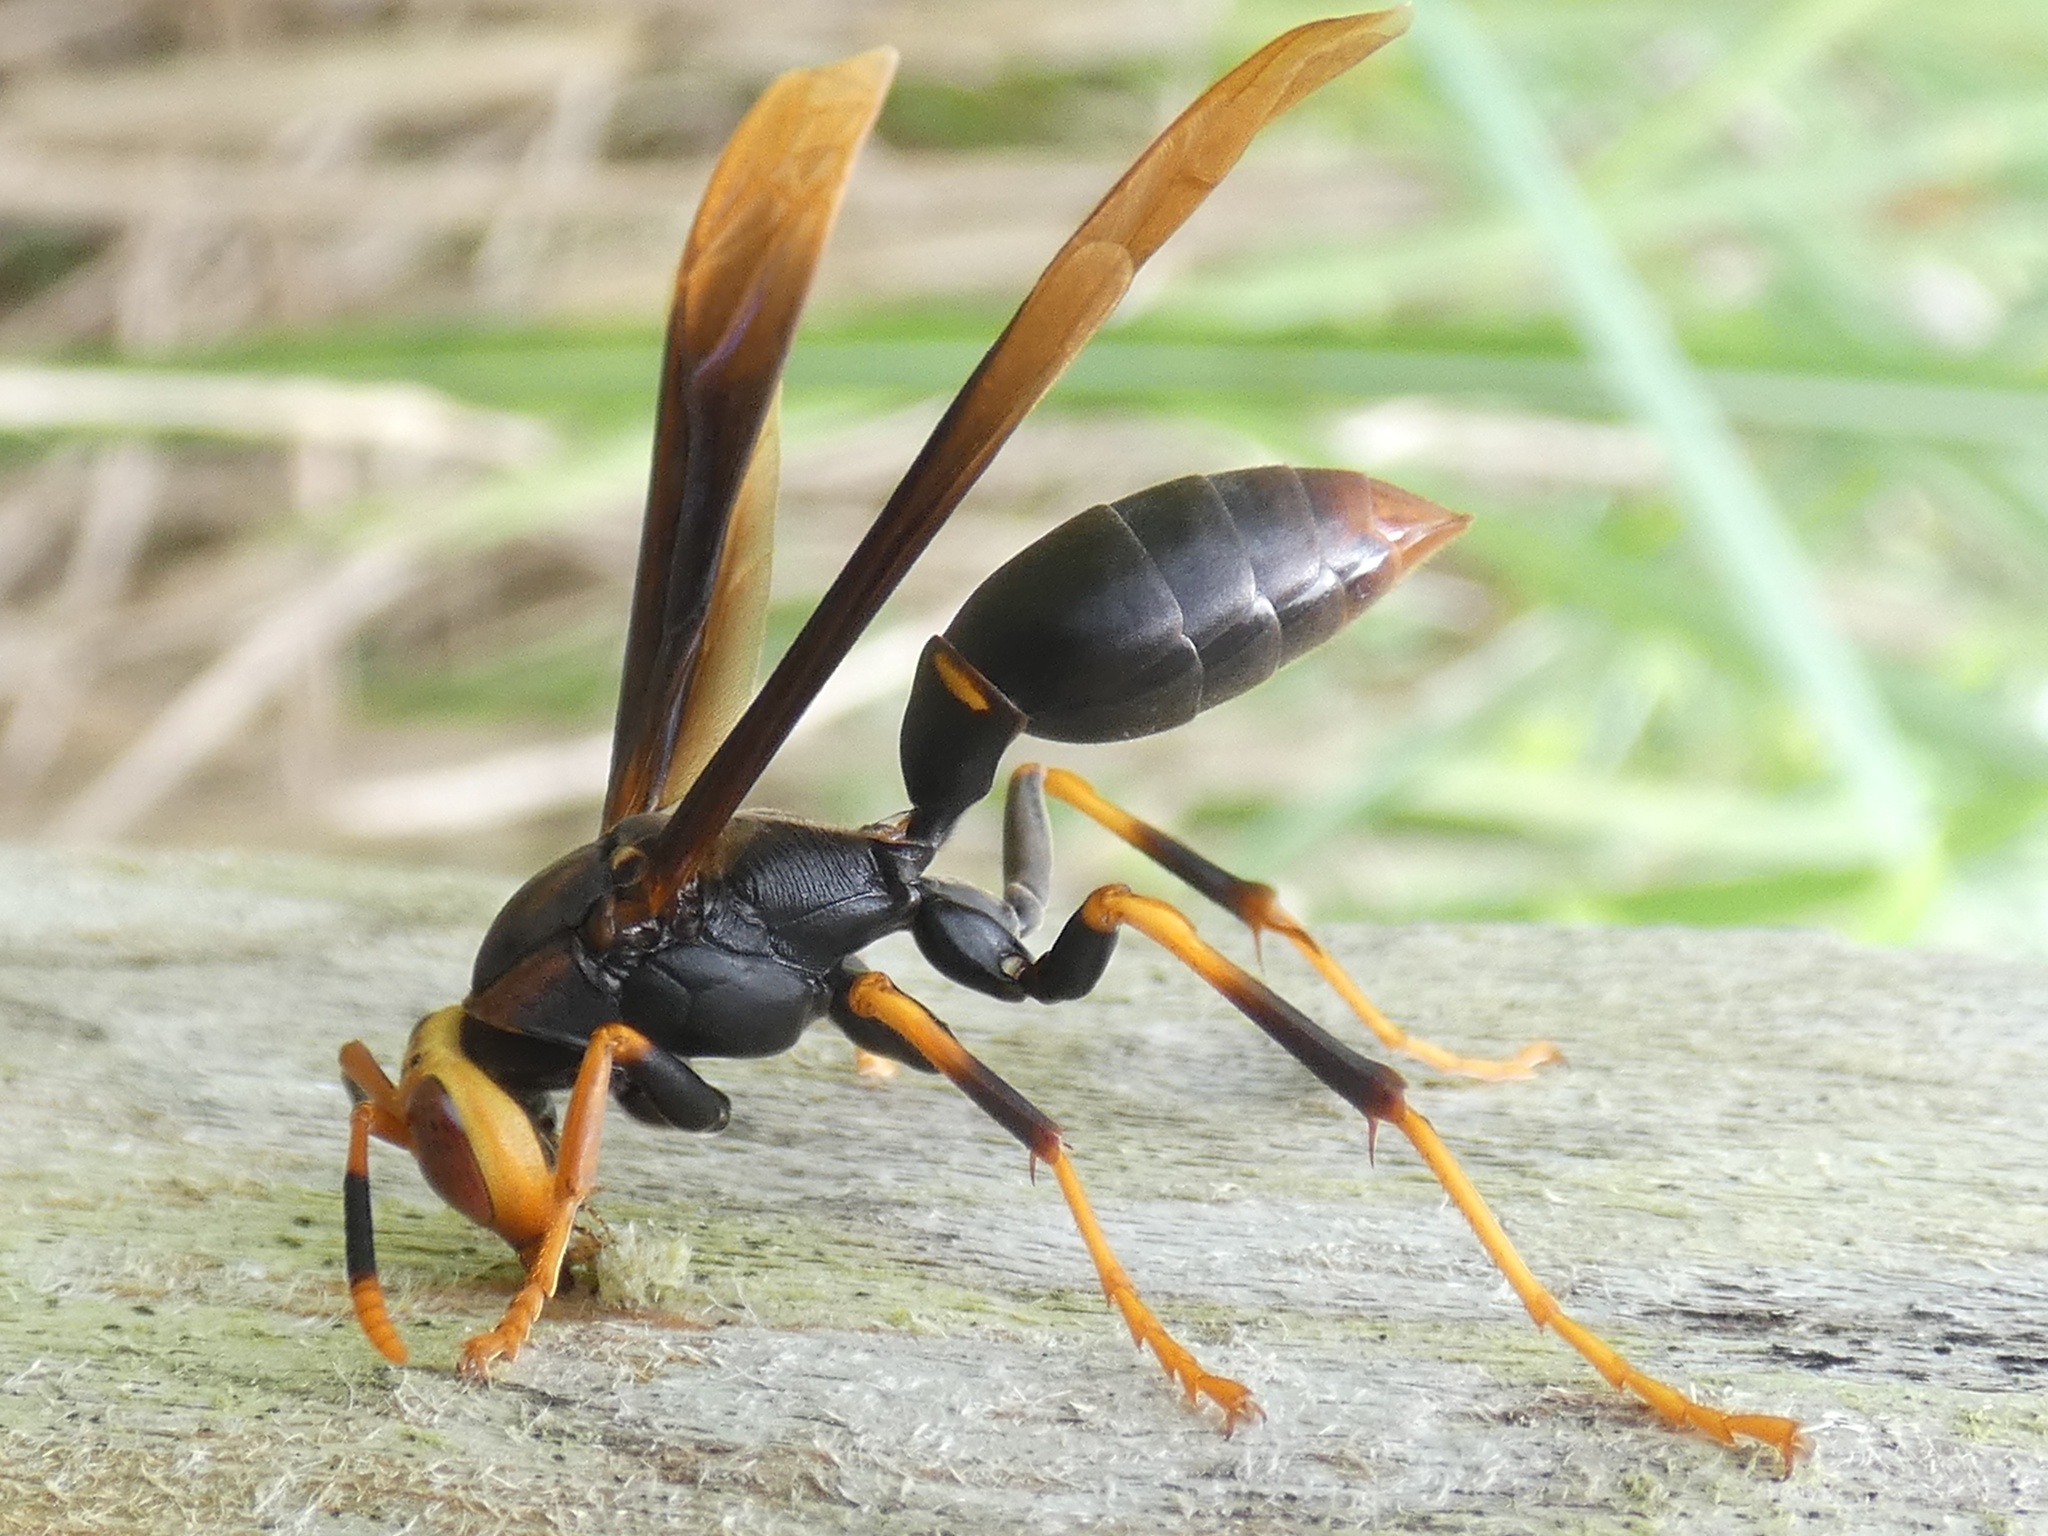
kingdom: Animalia
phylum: Arthropoda
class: Insecta
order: Hymenoptera
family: Eumenidae
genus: Polistes
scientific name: Polistes infuscatus
